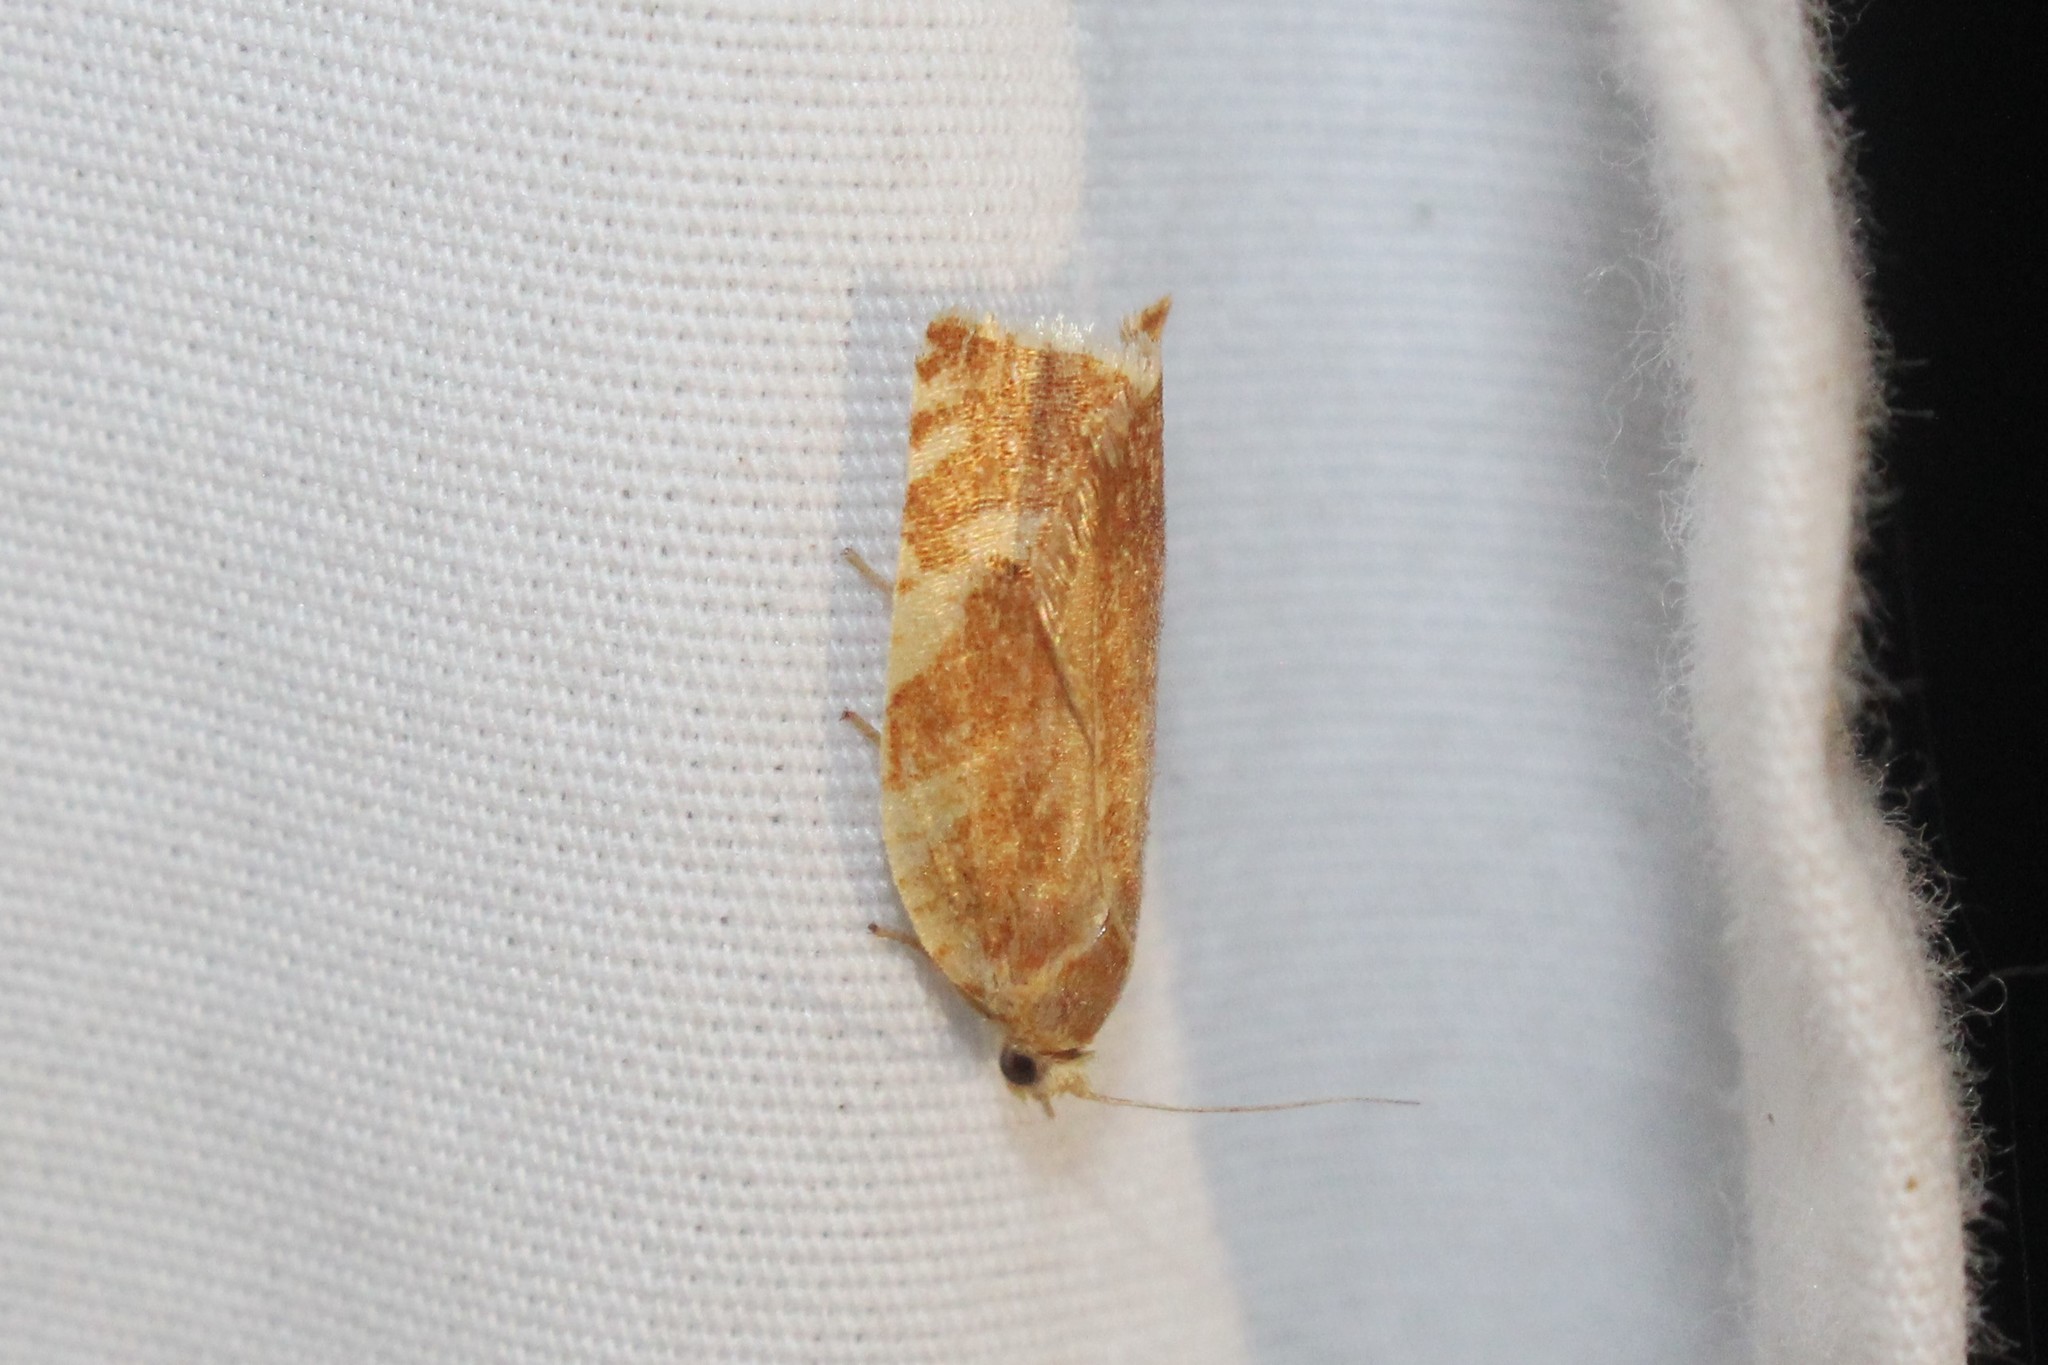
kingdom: Animalia
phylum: Arthropoda
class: Insecta
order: Lepidoptera
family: Tortricidae
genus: Archips
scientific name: Archips semiferanus
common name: Oak leafroller
